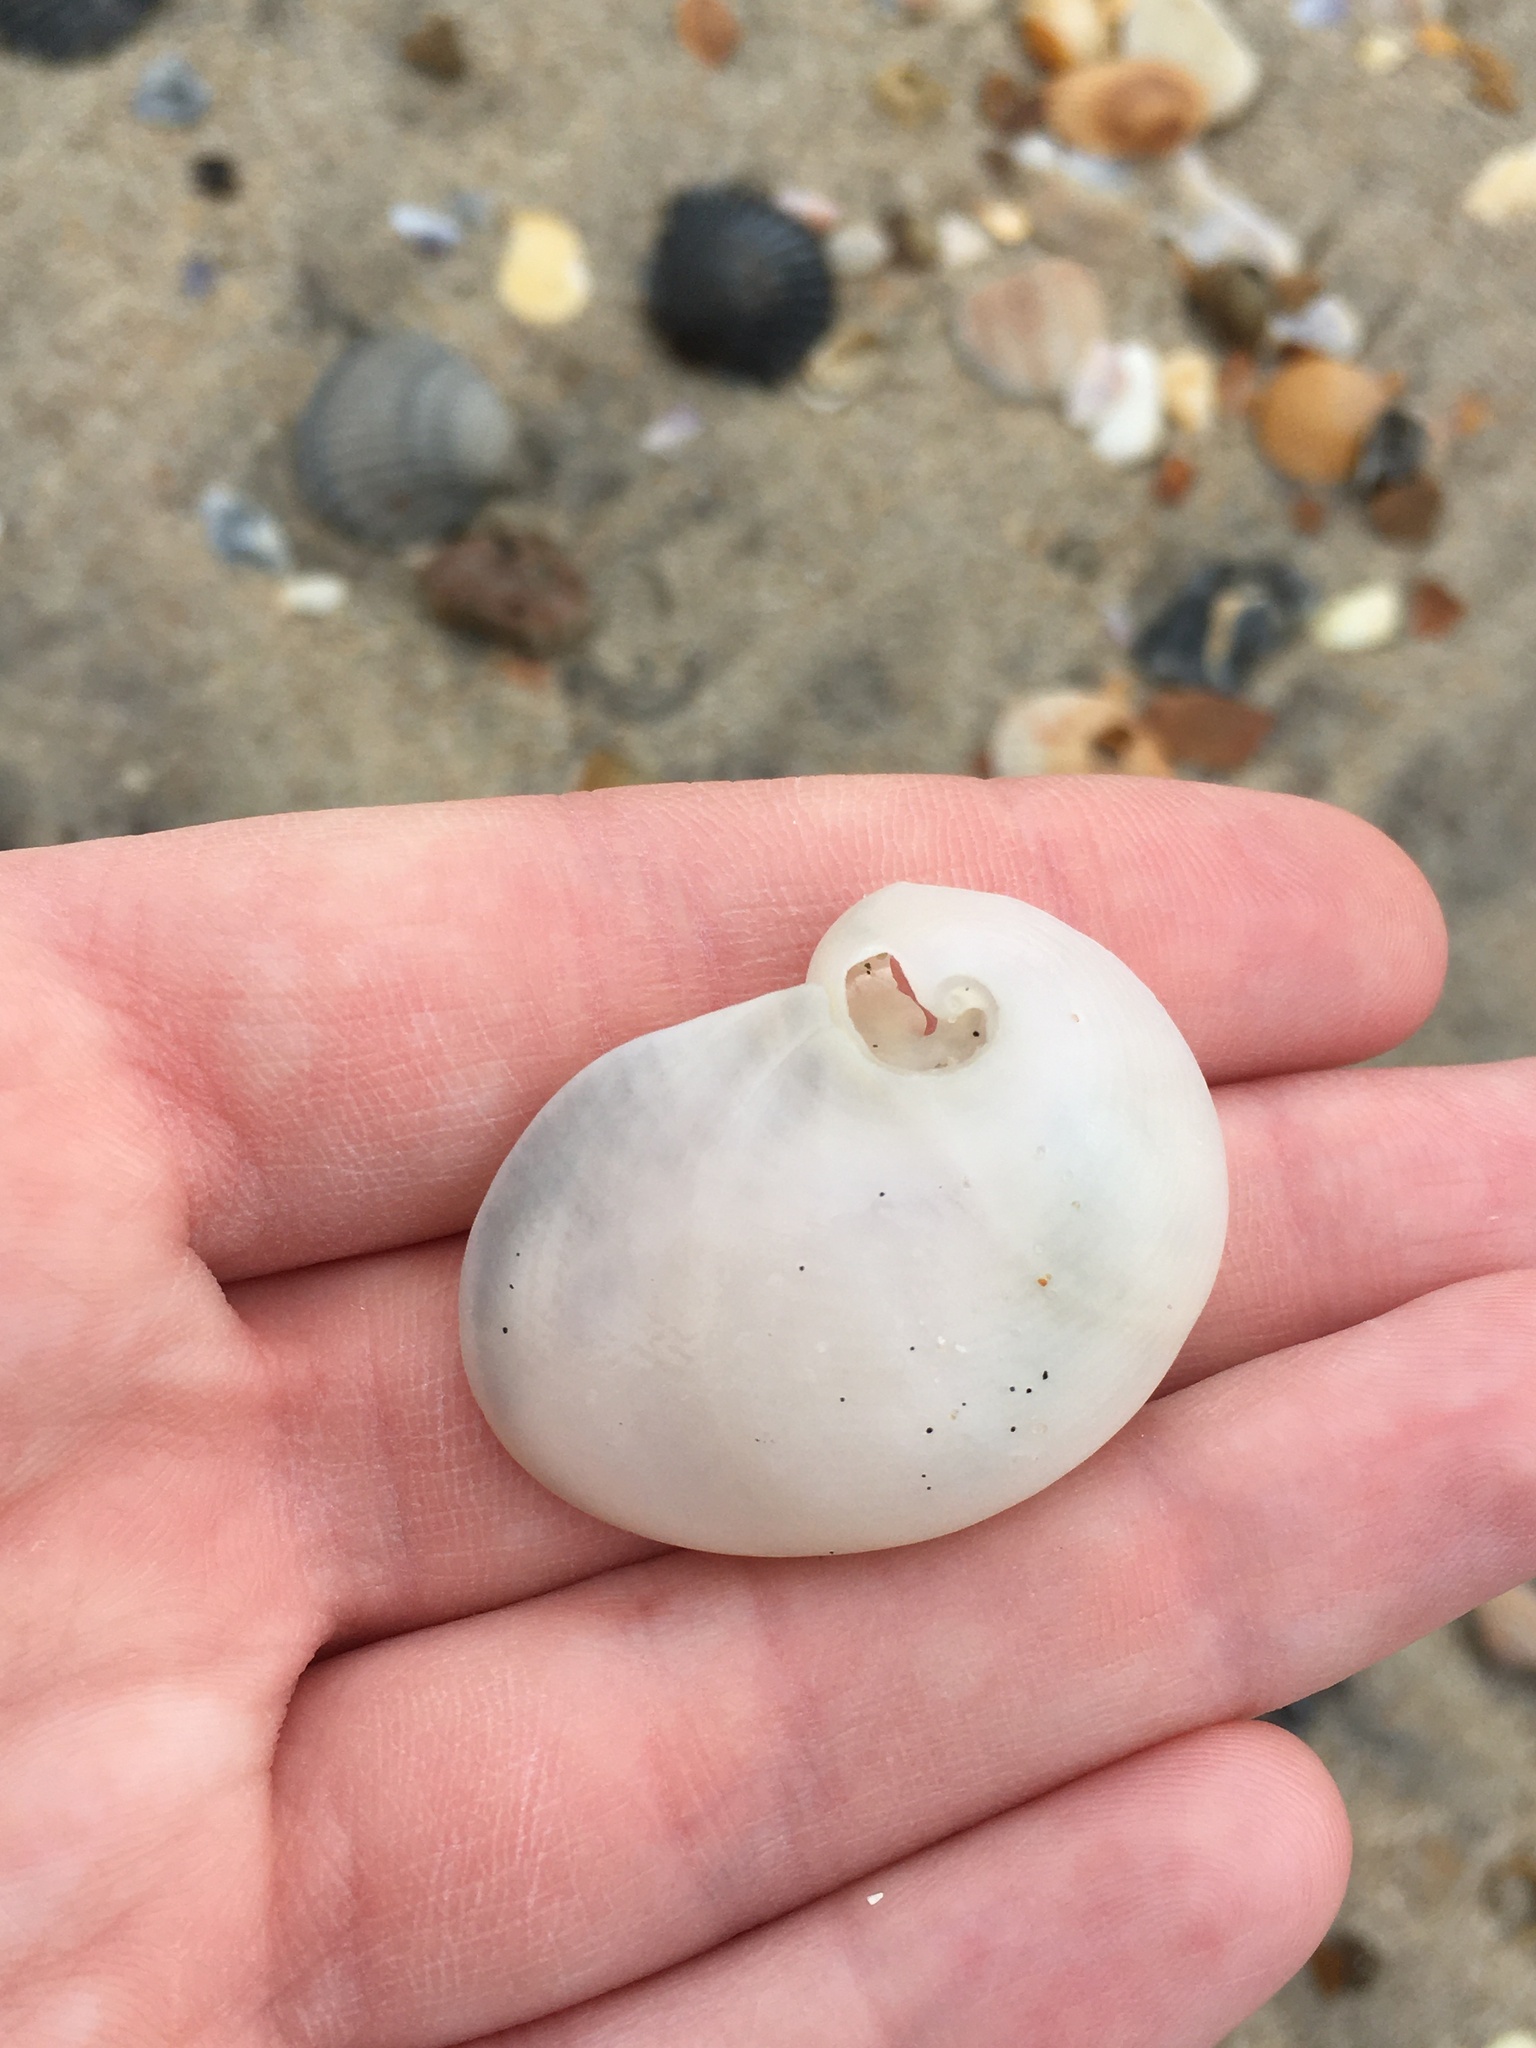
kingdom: Animalia
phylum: Mollusca
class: Gastropoda
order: Littorinimorpha
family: Naticidae
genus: Sinum
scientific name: Sinum perspectivum
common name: White baby ear
